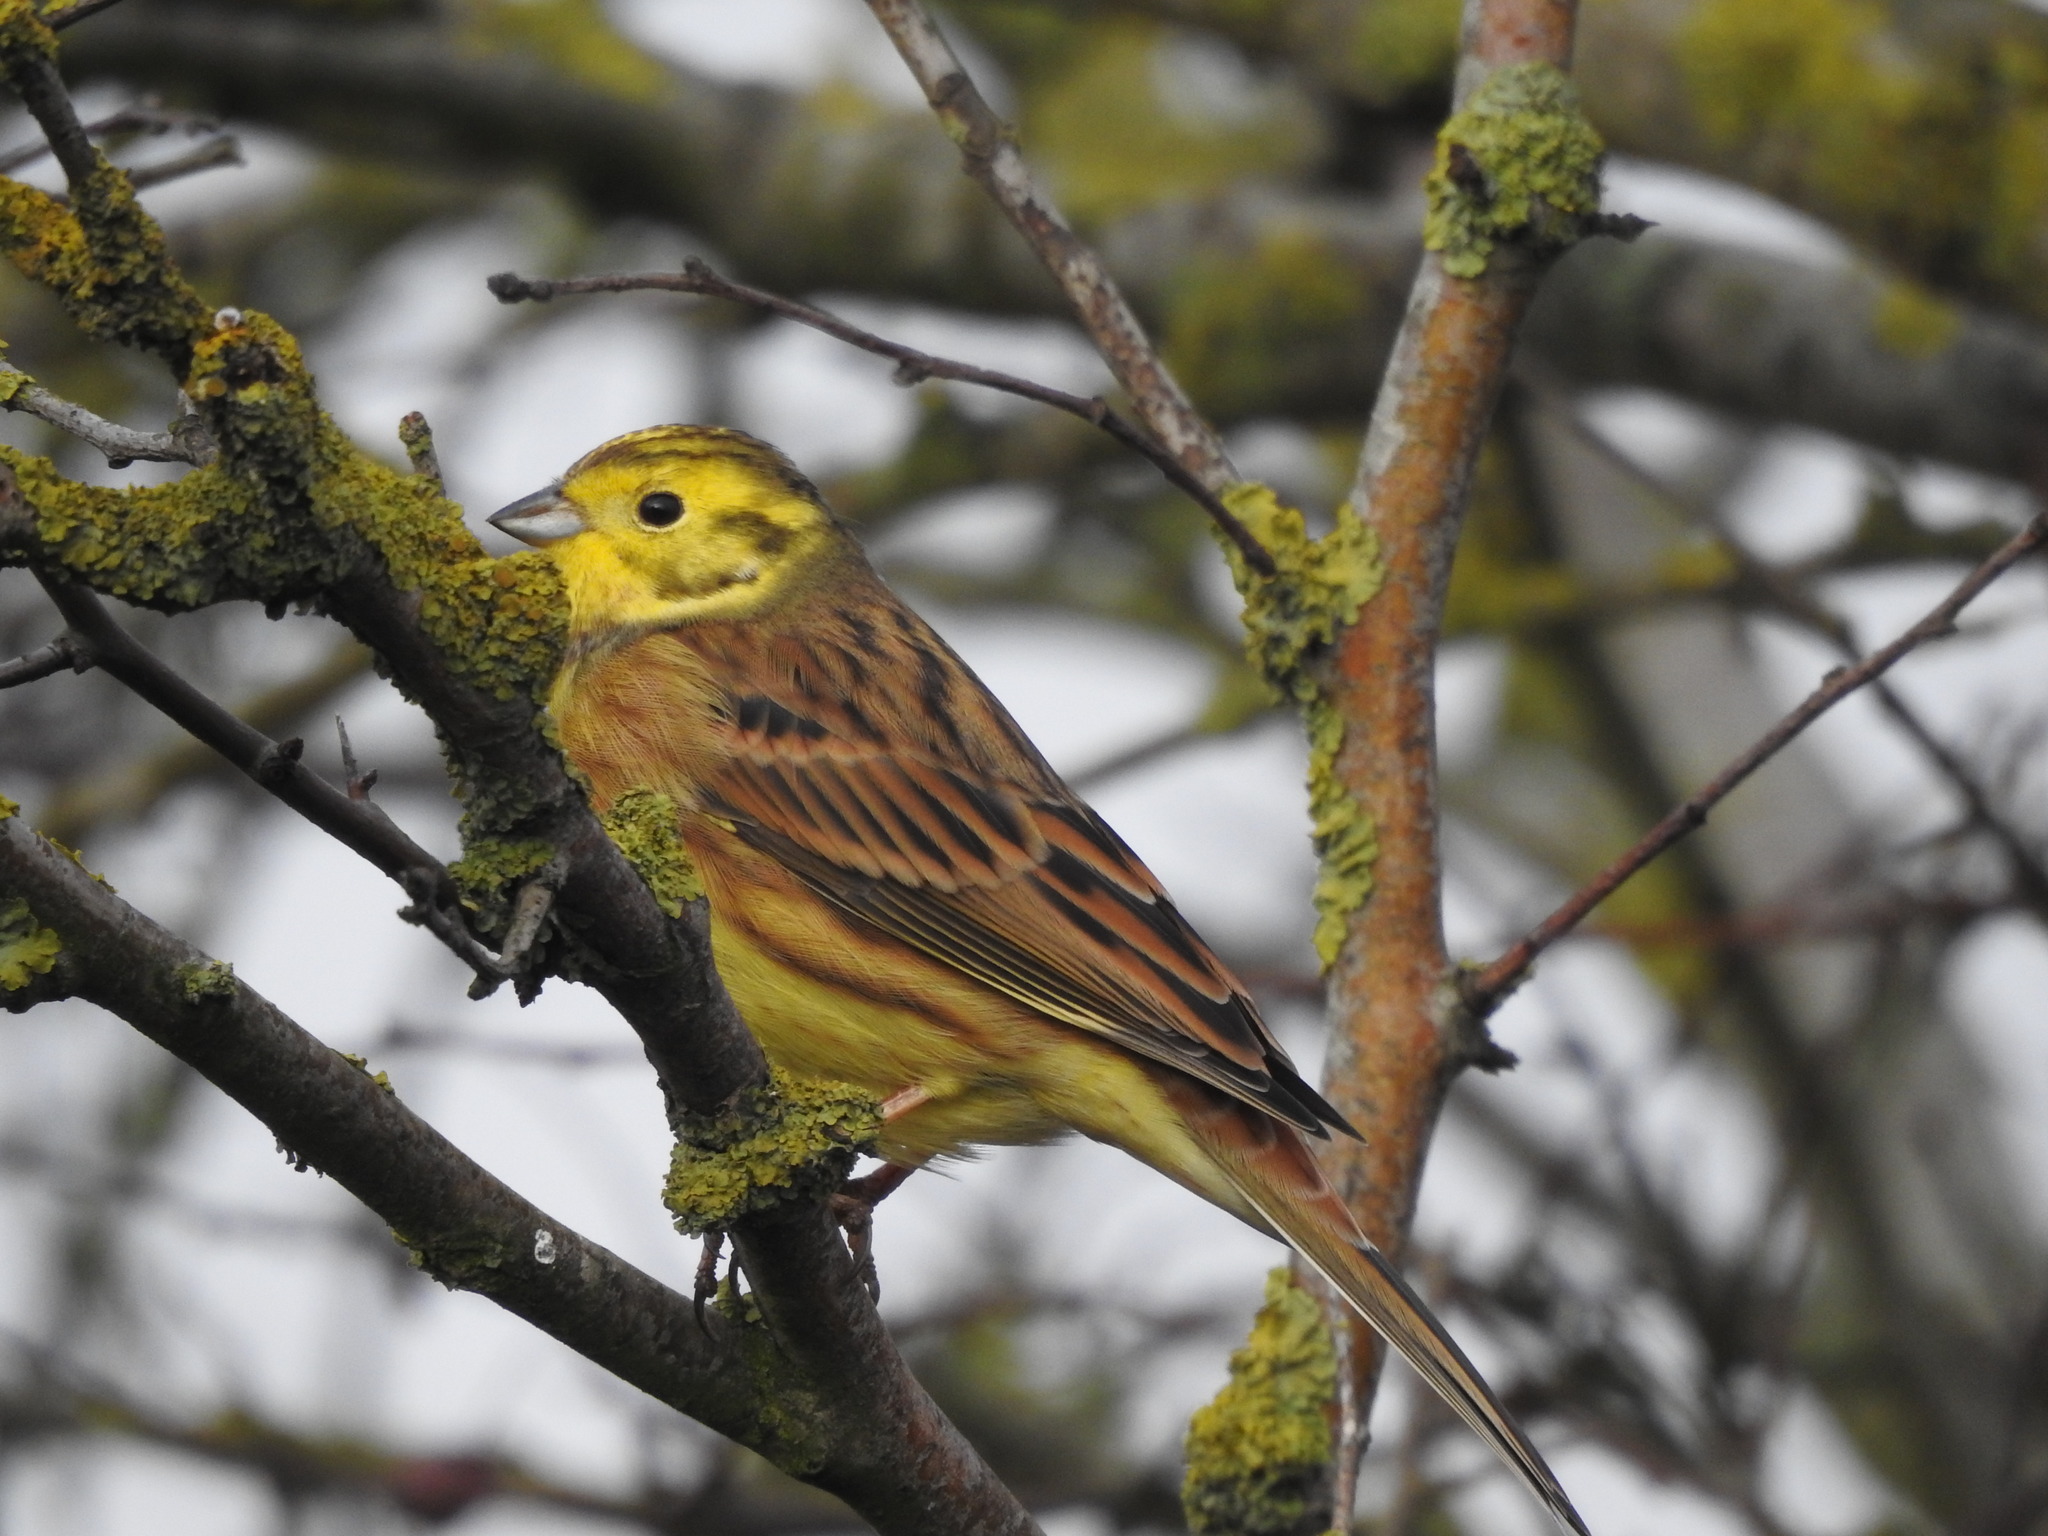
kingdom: Animalia
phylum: Chordata
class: Aves
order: Passeriformes
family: Emberizidae
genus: Emberiza
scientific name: Emberiza citrinella
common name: Yellowhammer
